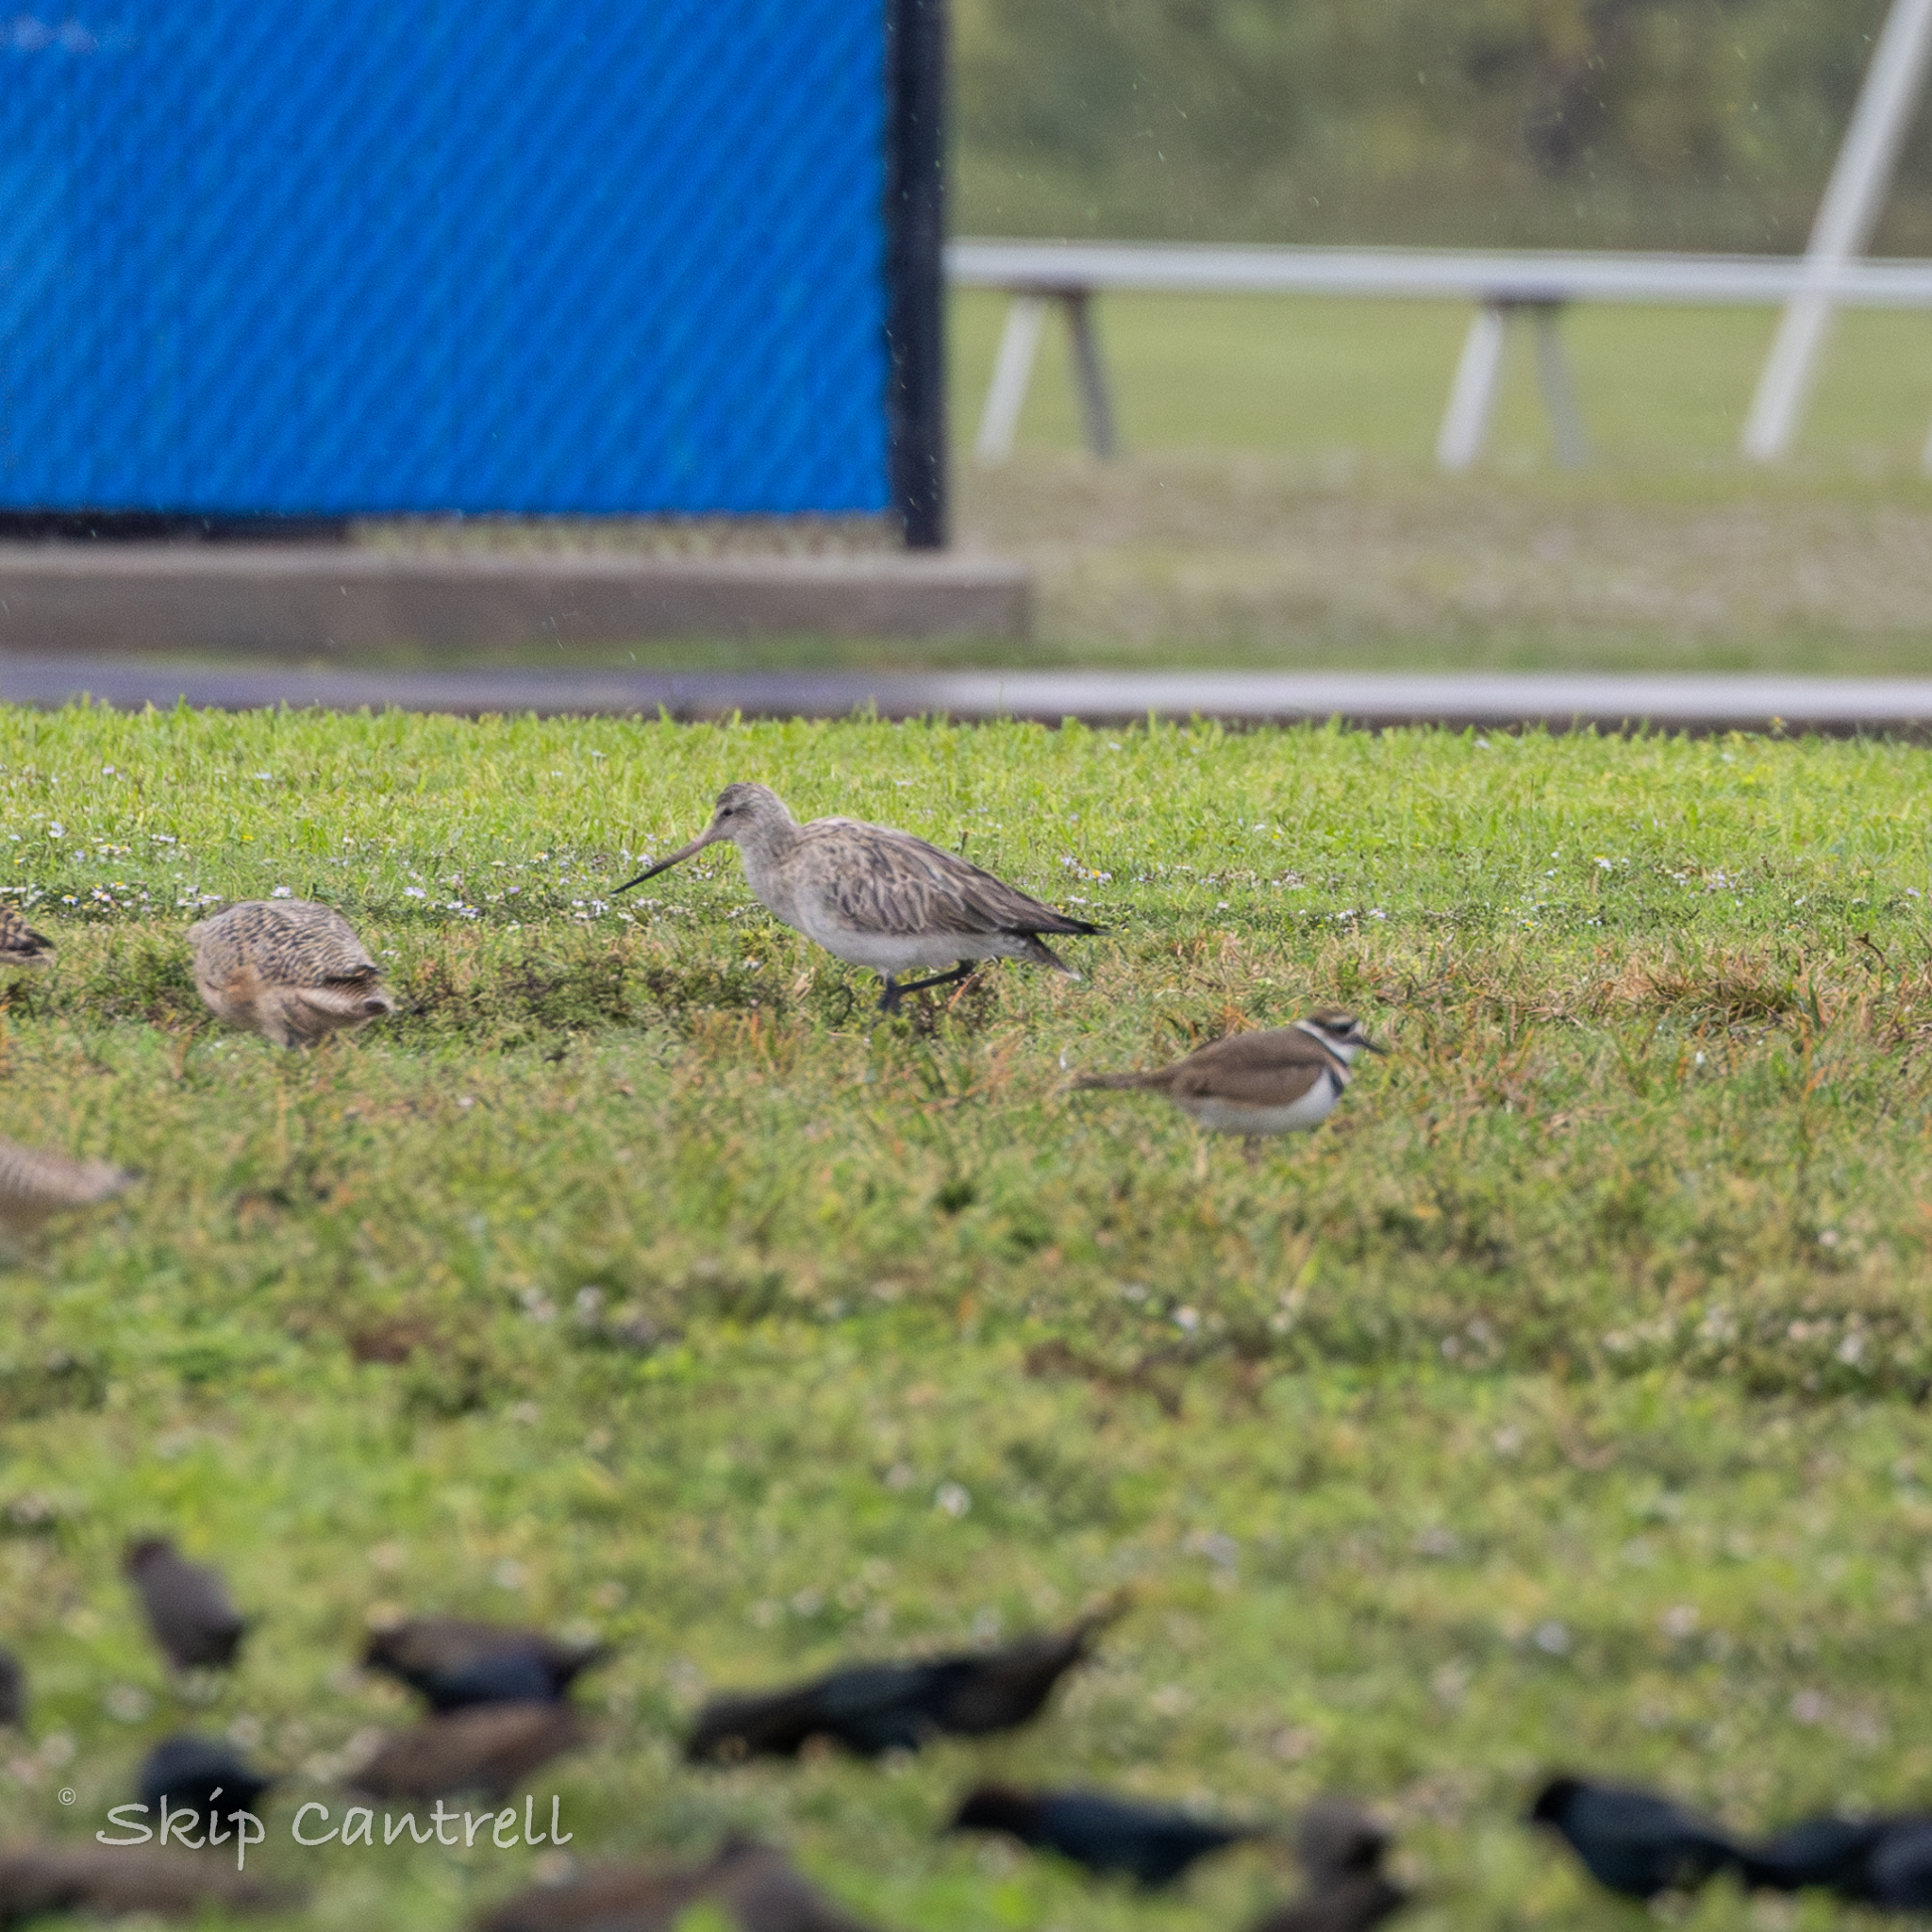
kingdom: Animalia
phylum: Chordata
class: Aves
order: Charadriiformes
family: Scolopacidae
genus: Limosa
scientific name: Limosa lapponica
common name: Bar-tailed godwit
